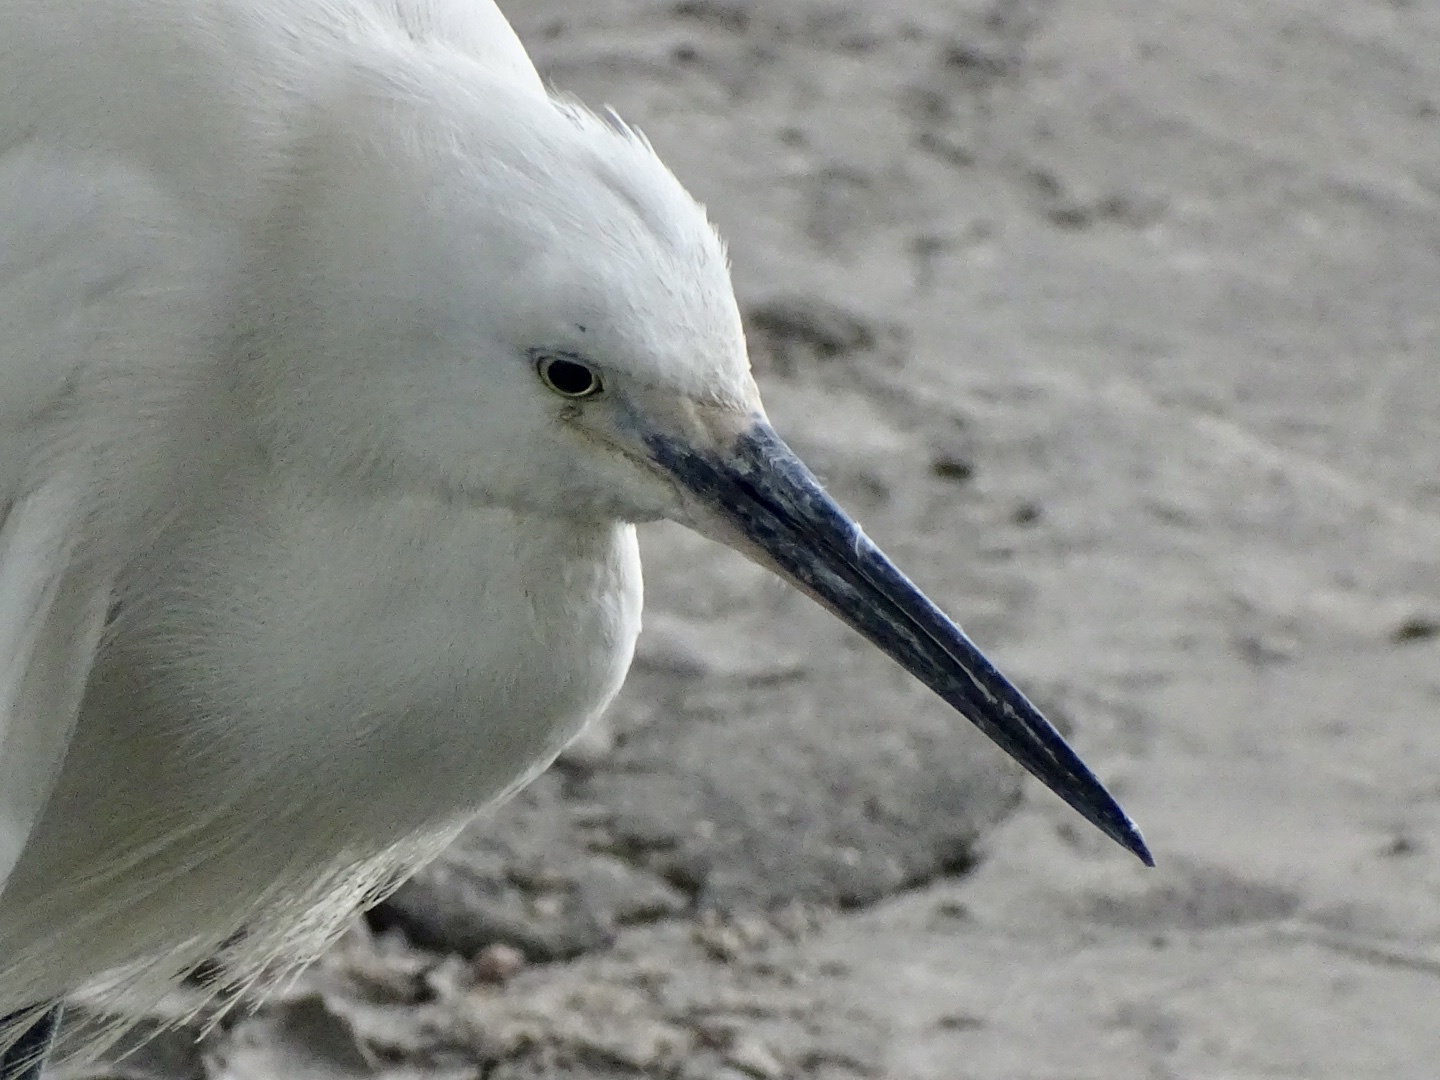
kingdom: Animalia
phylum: Chordata
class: Aves
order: Pelecaniformes
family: Ardeidae
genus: Egretta
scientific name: Egretta garzetta
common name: Little egret
